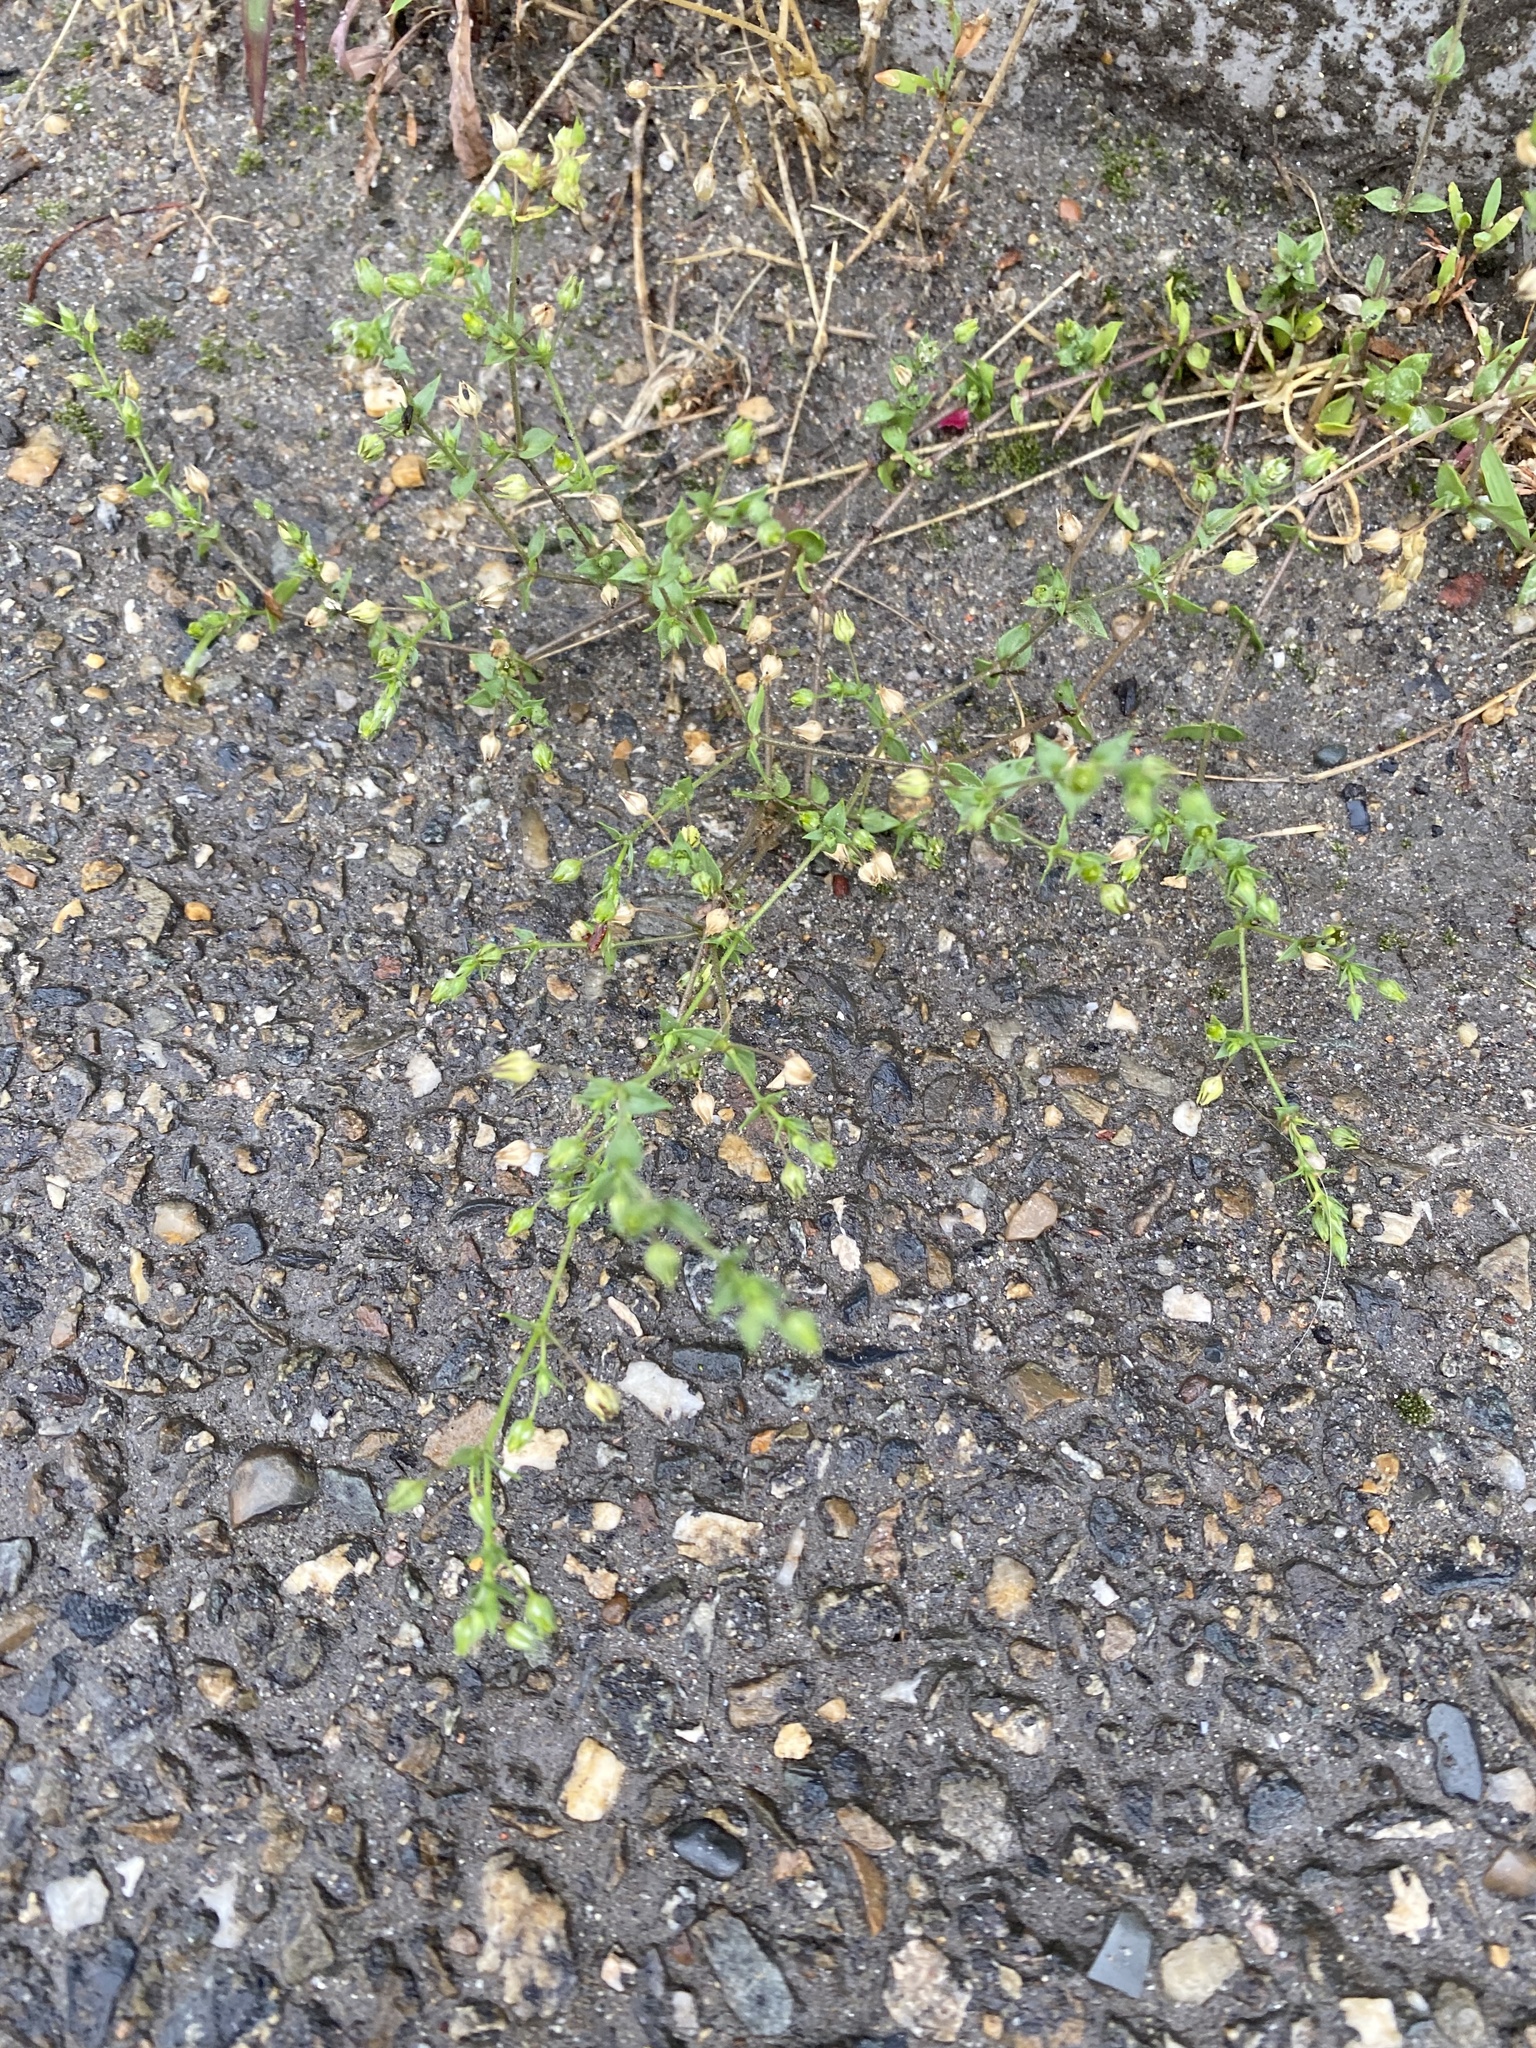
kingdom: Plantae
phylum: Tracheophyta
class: Magnoliopsida
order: Caryophyllales
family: Caryophyllaceae
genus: Arenaria
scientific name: Arenaria serpyllifolia
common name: Thyme-leaved sandwort
